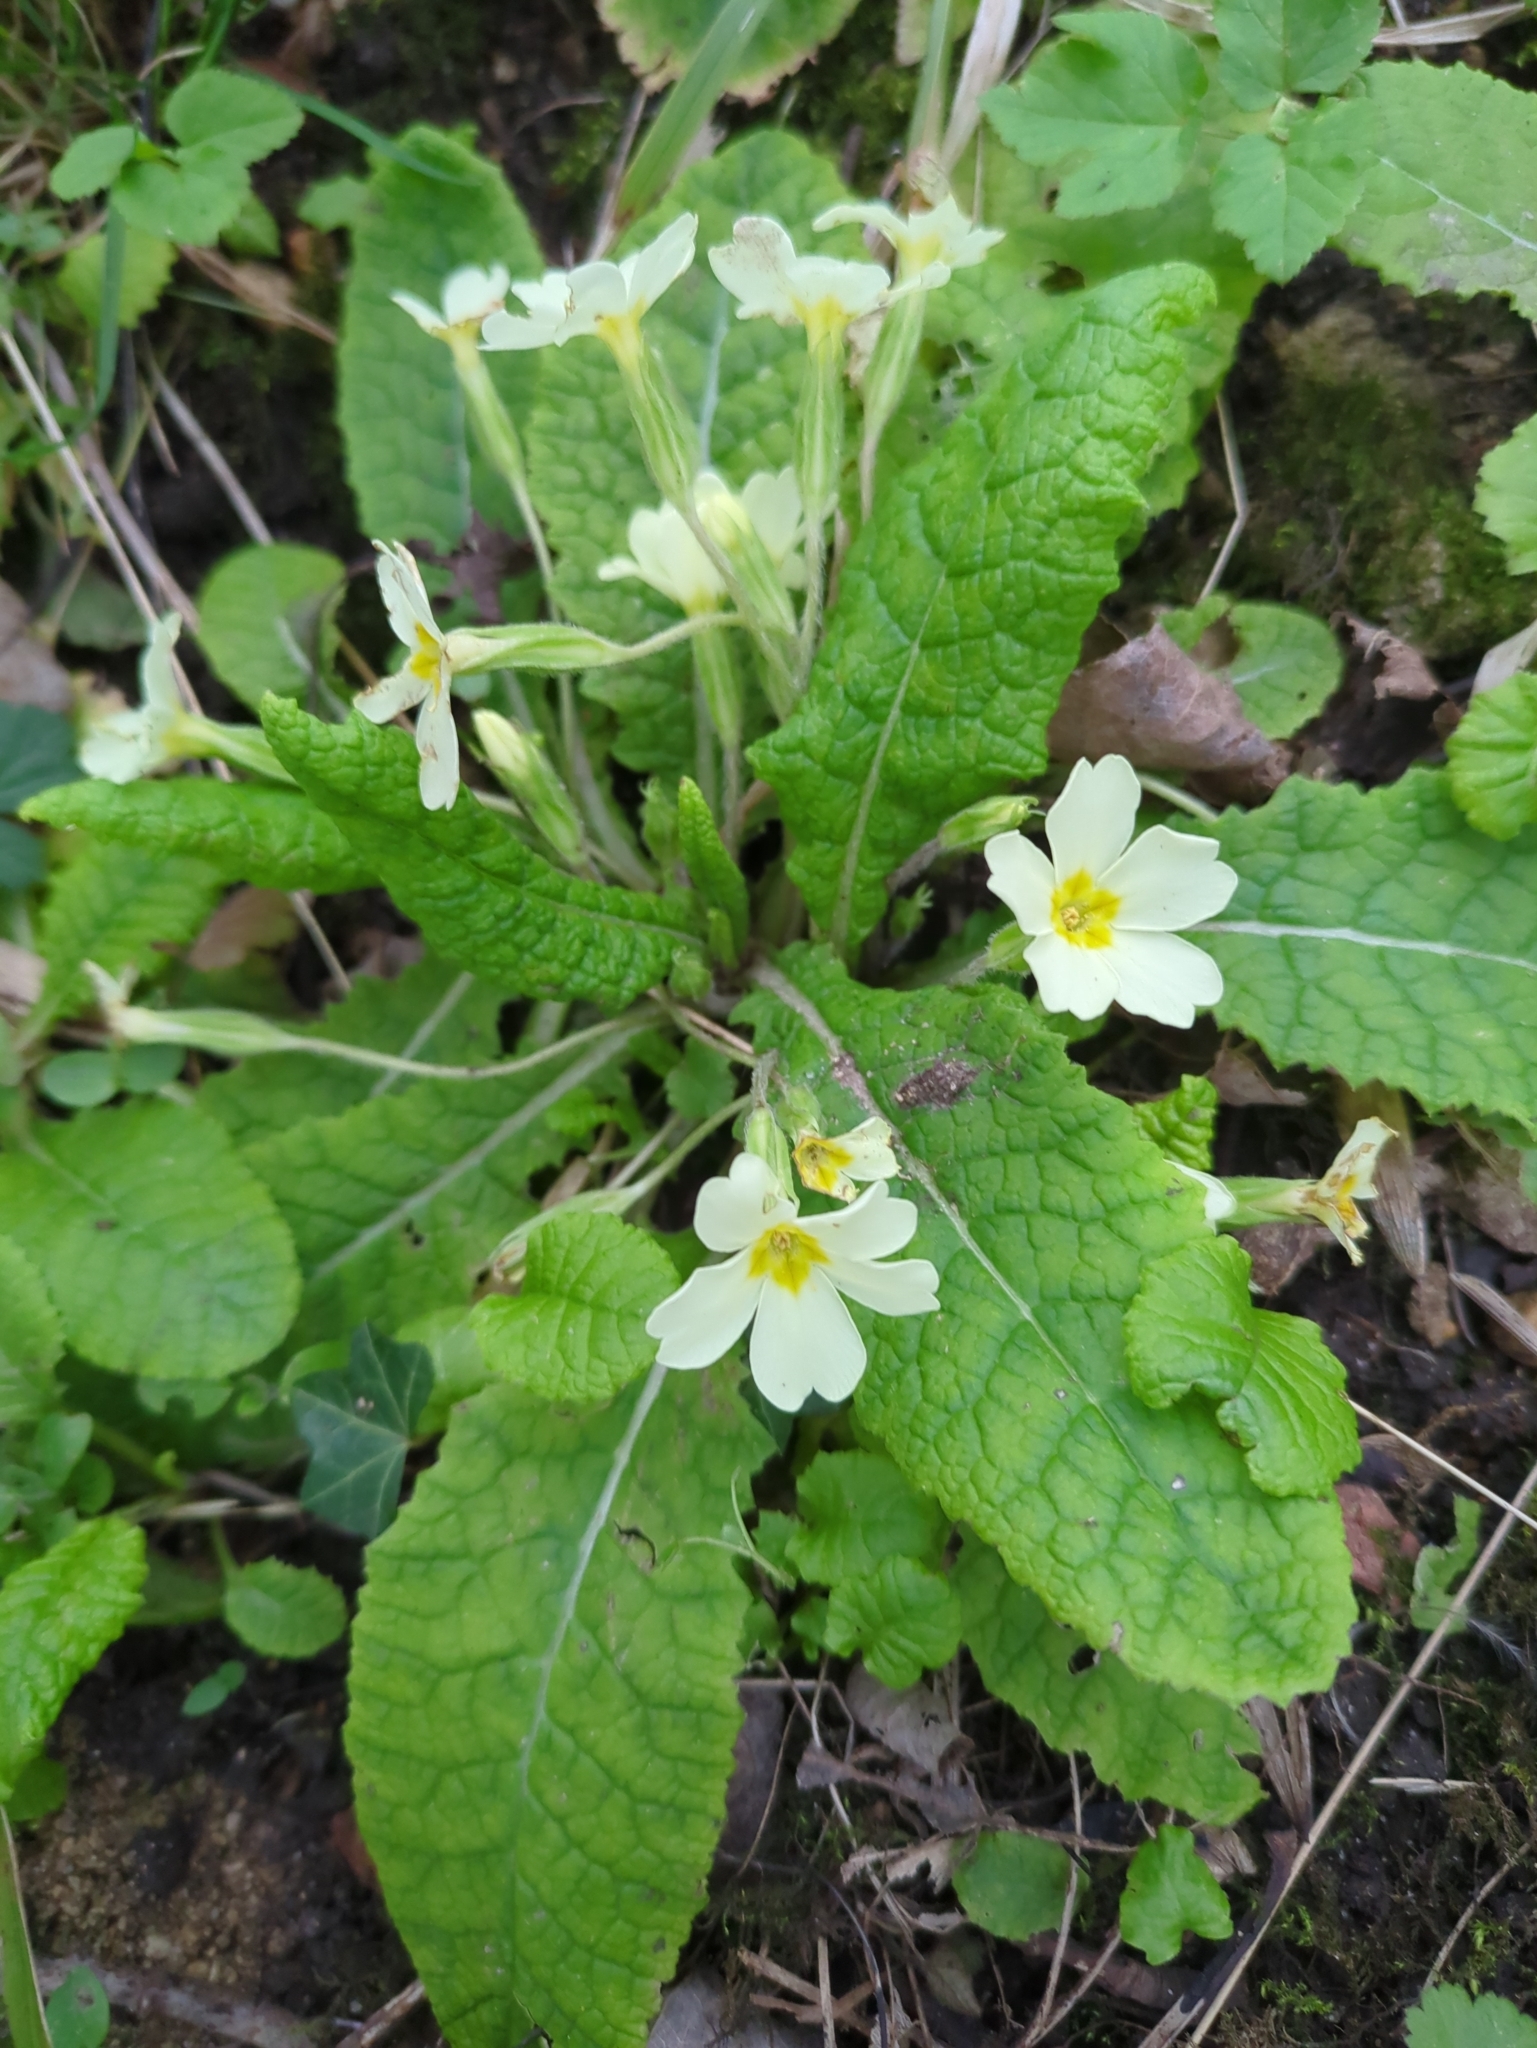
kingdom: Plantae
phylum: Tracheophyta
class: Magnoliopsida
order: Ericales
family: Primulaceae
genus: Primula
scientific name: Primula vulgaris
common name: Primrose
